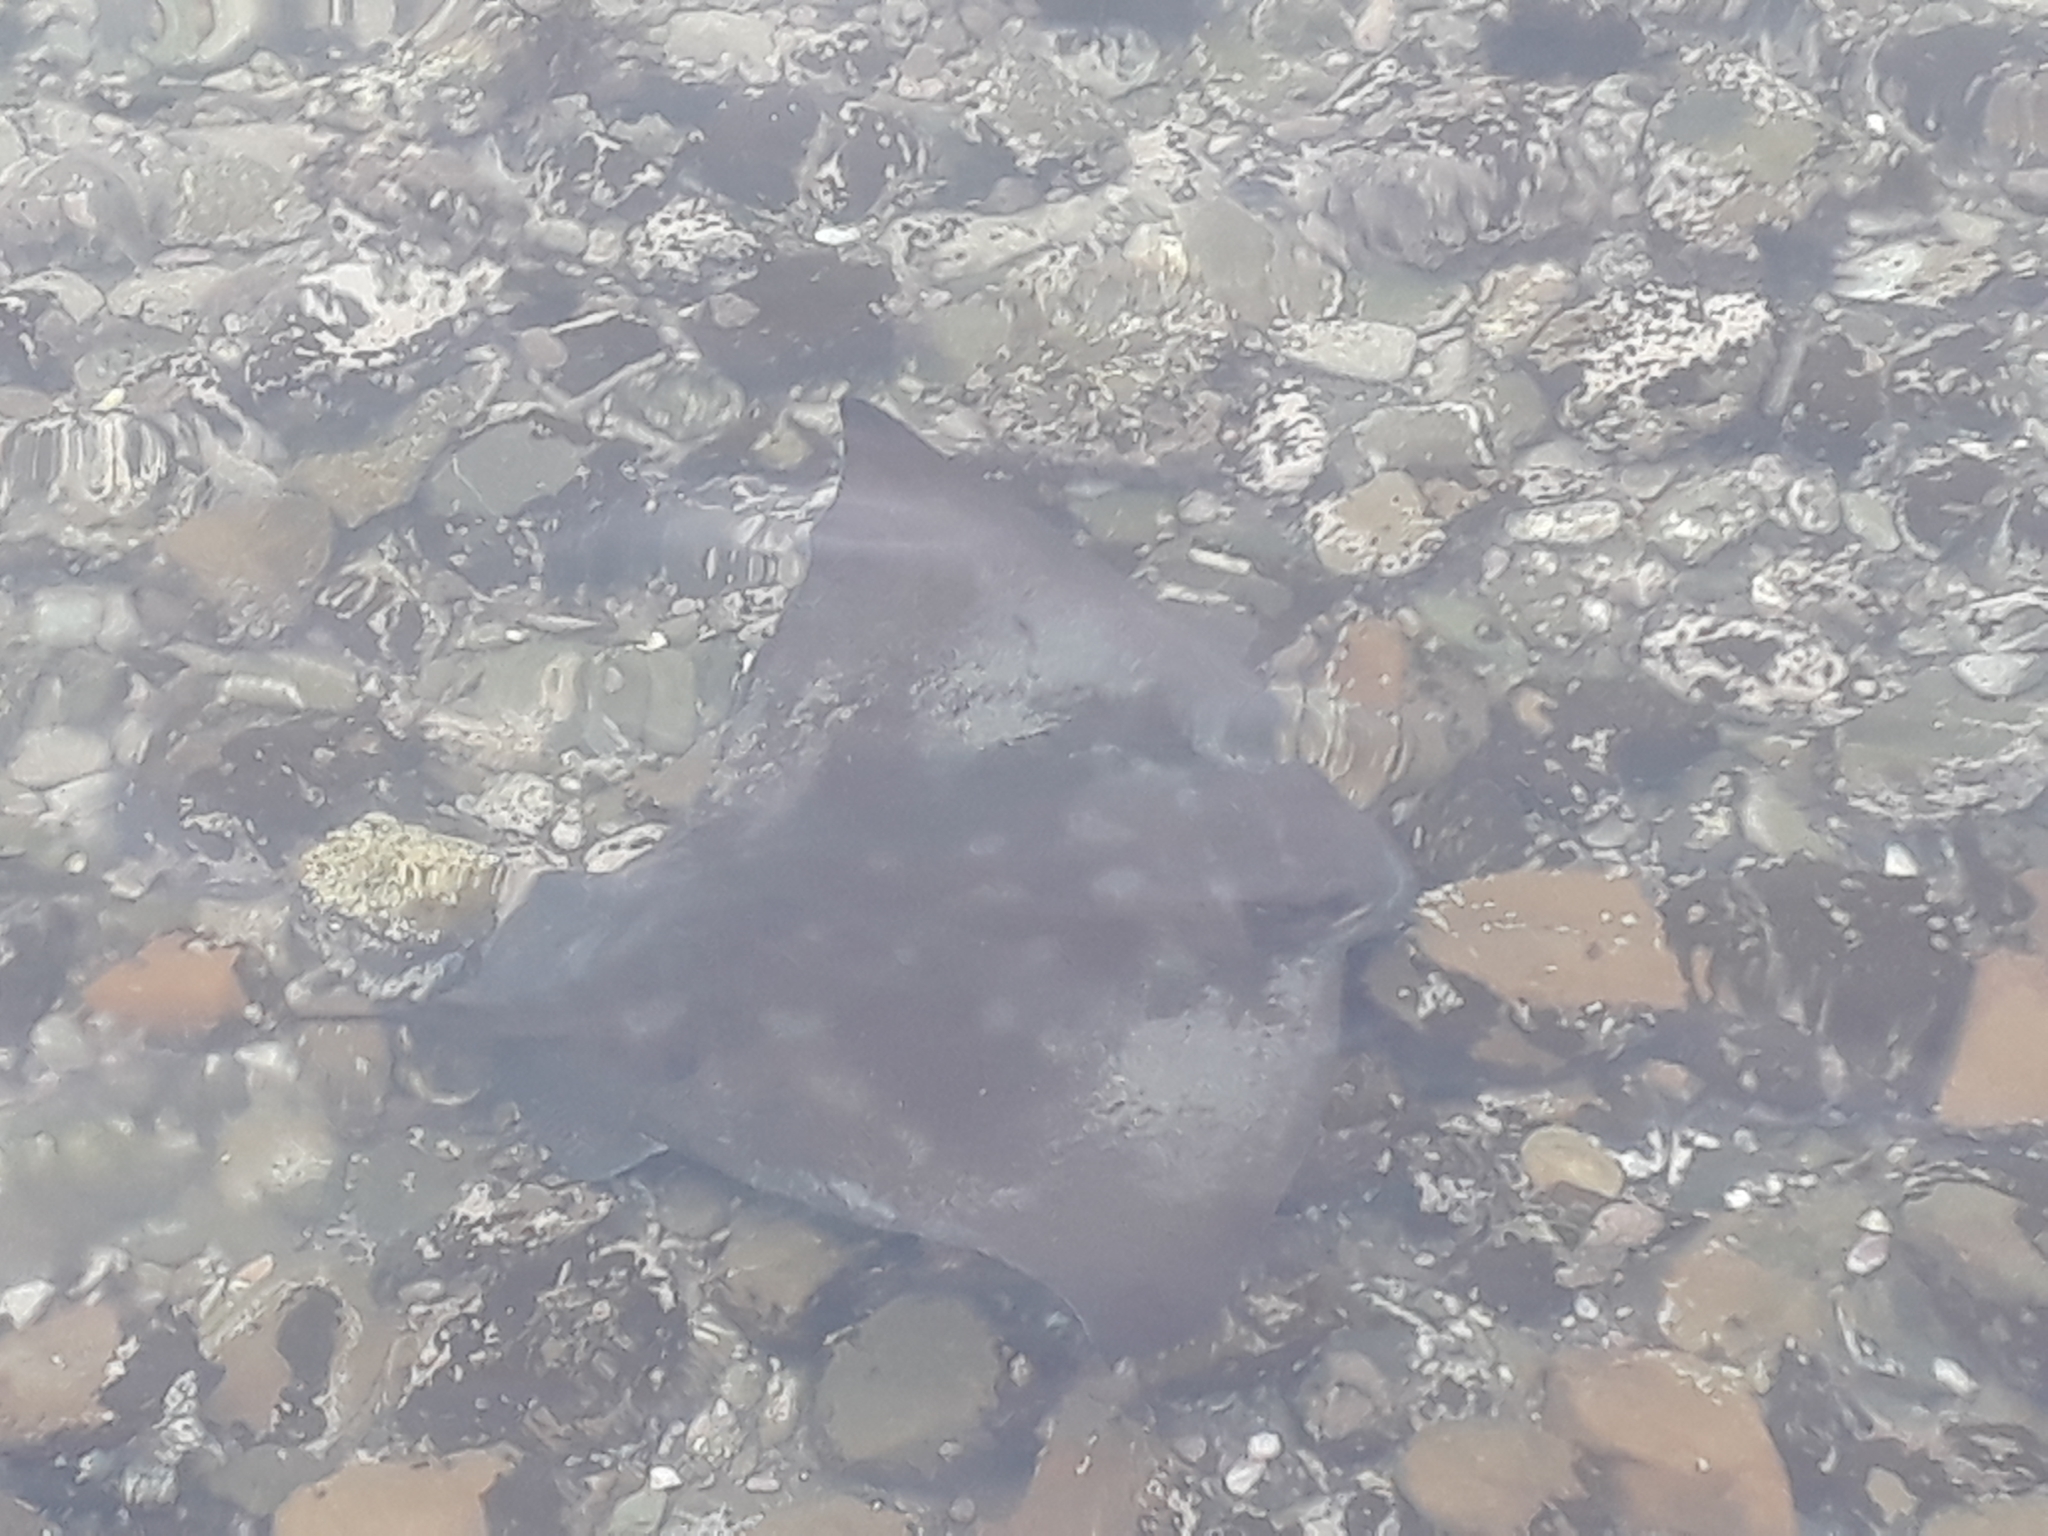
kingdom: Animalia
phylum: Chordata
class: Elasmobranchii
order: Myliobatiformes
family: Myliobatidae
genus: Myliobatis
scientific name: Myliobatis tenuicaudatus
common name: Eagle ray
